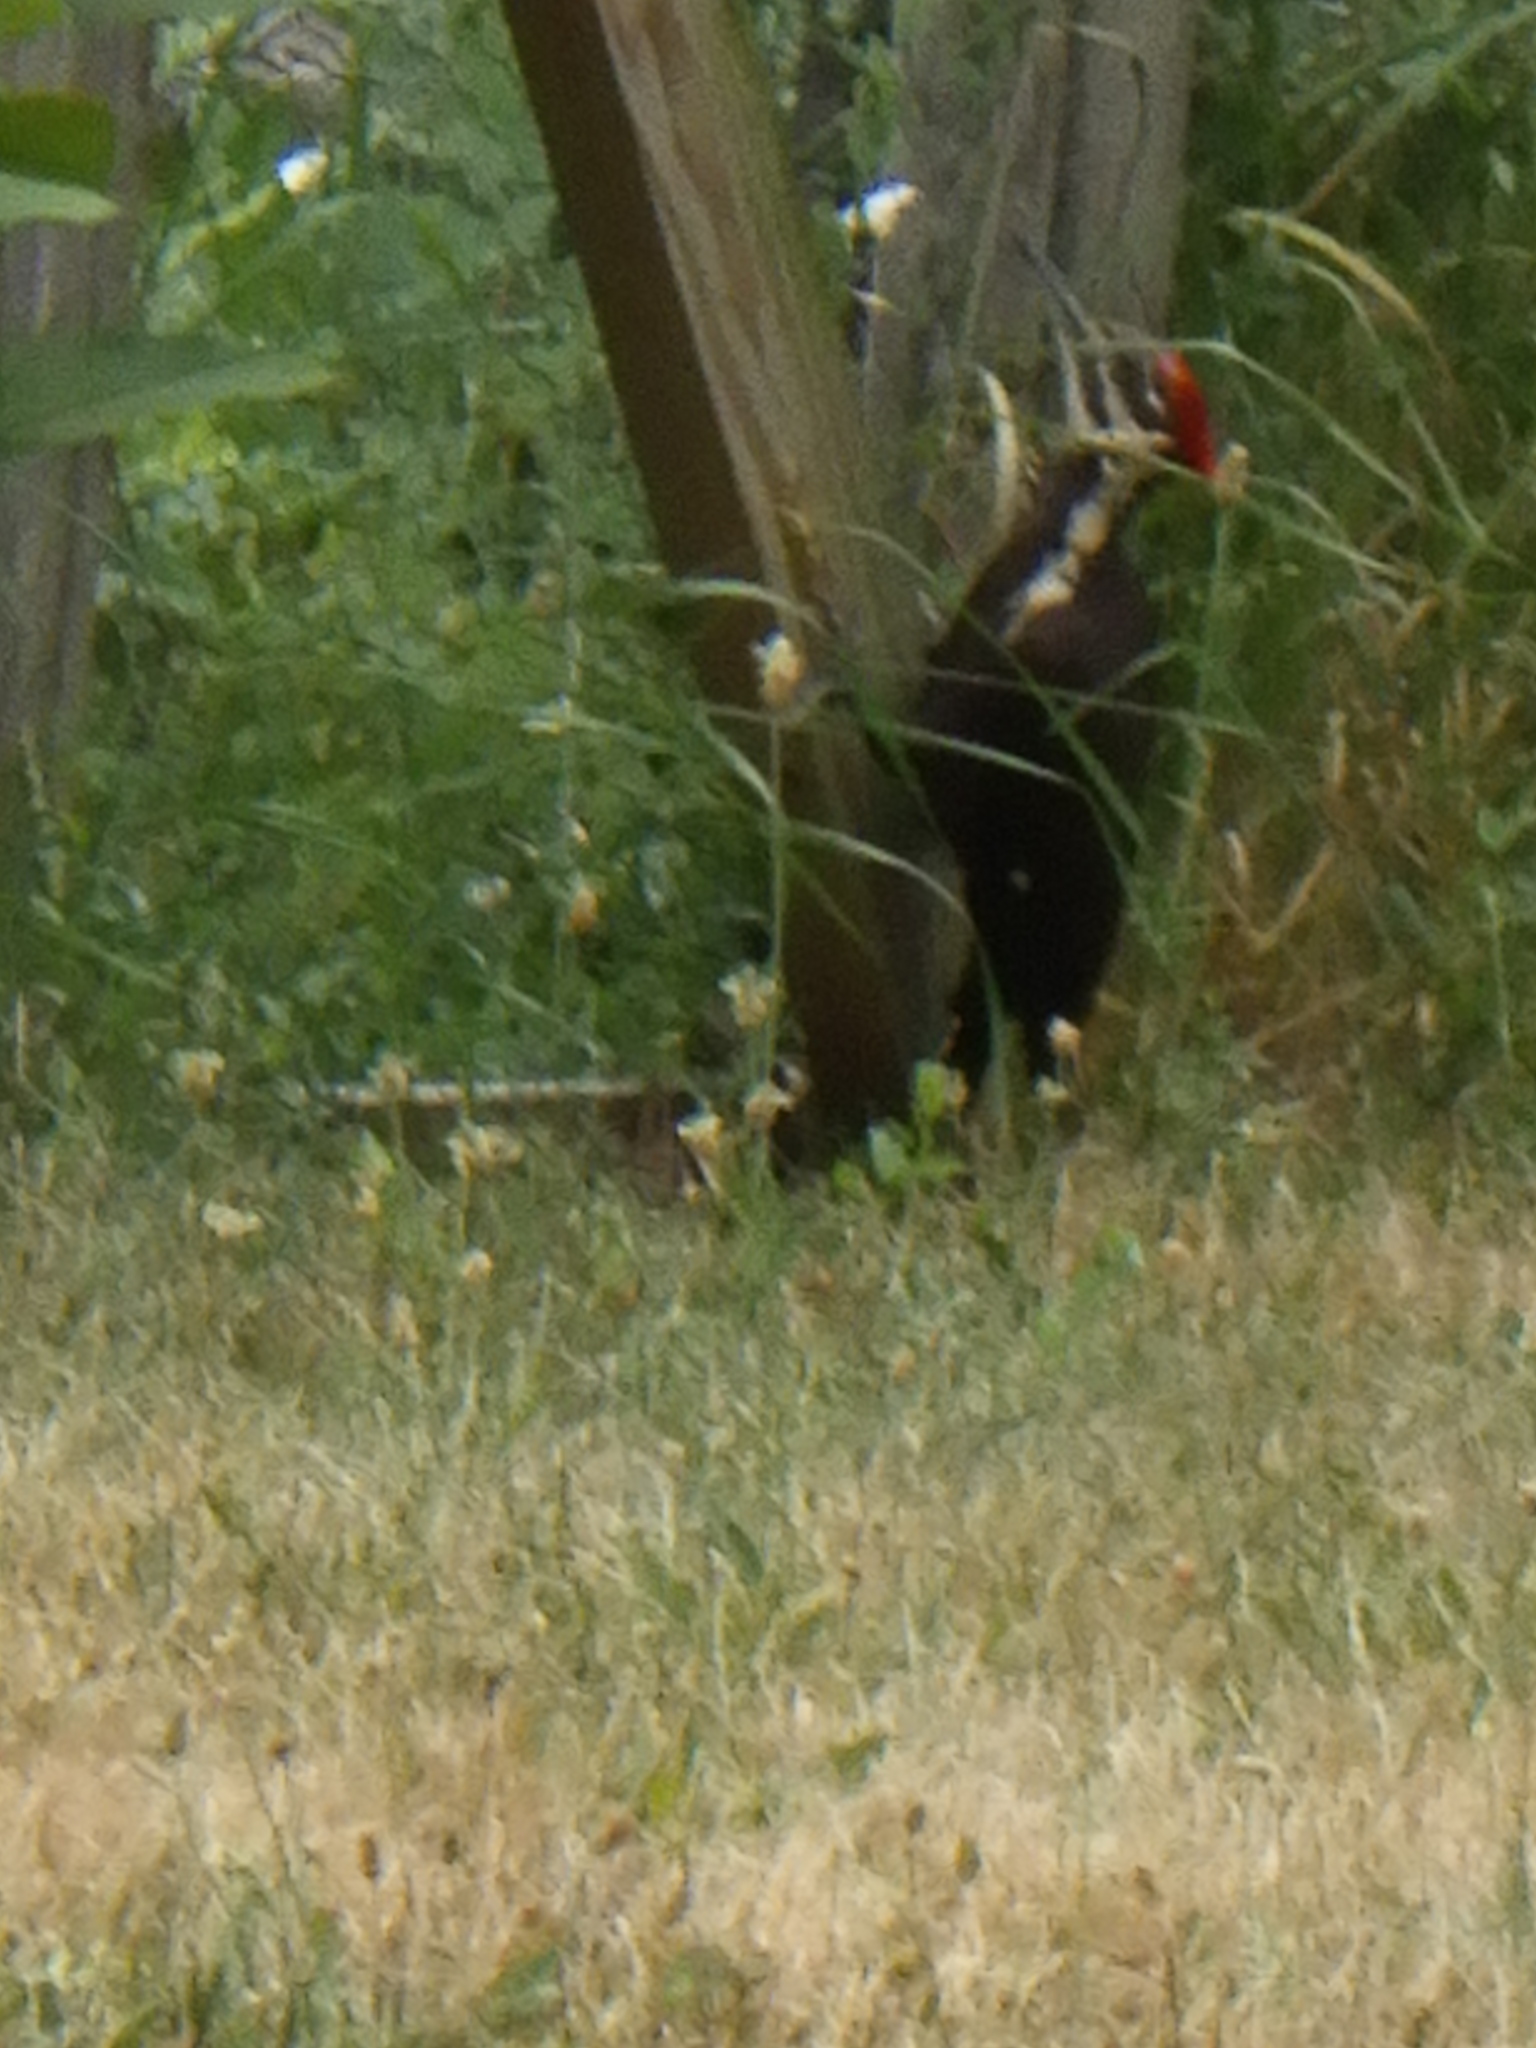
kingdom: Animalia
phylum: Chordata
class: Aves
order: Piciformes
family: Picidae
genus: Dryocopus
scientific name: Dryocopus pileatus
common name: Pileated woodpecker
